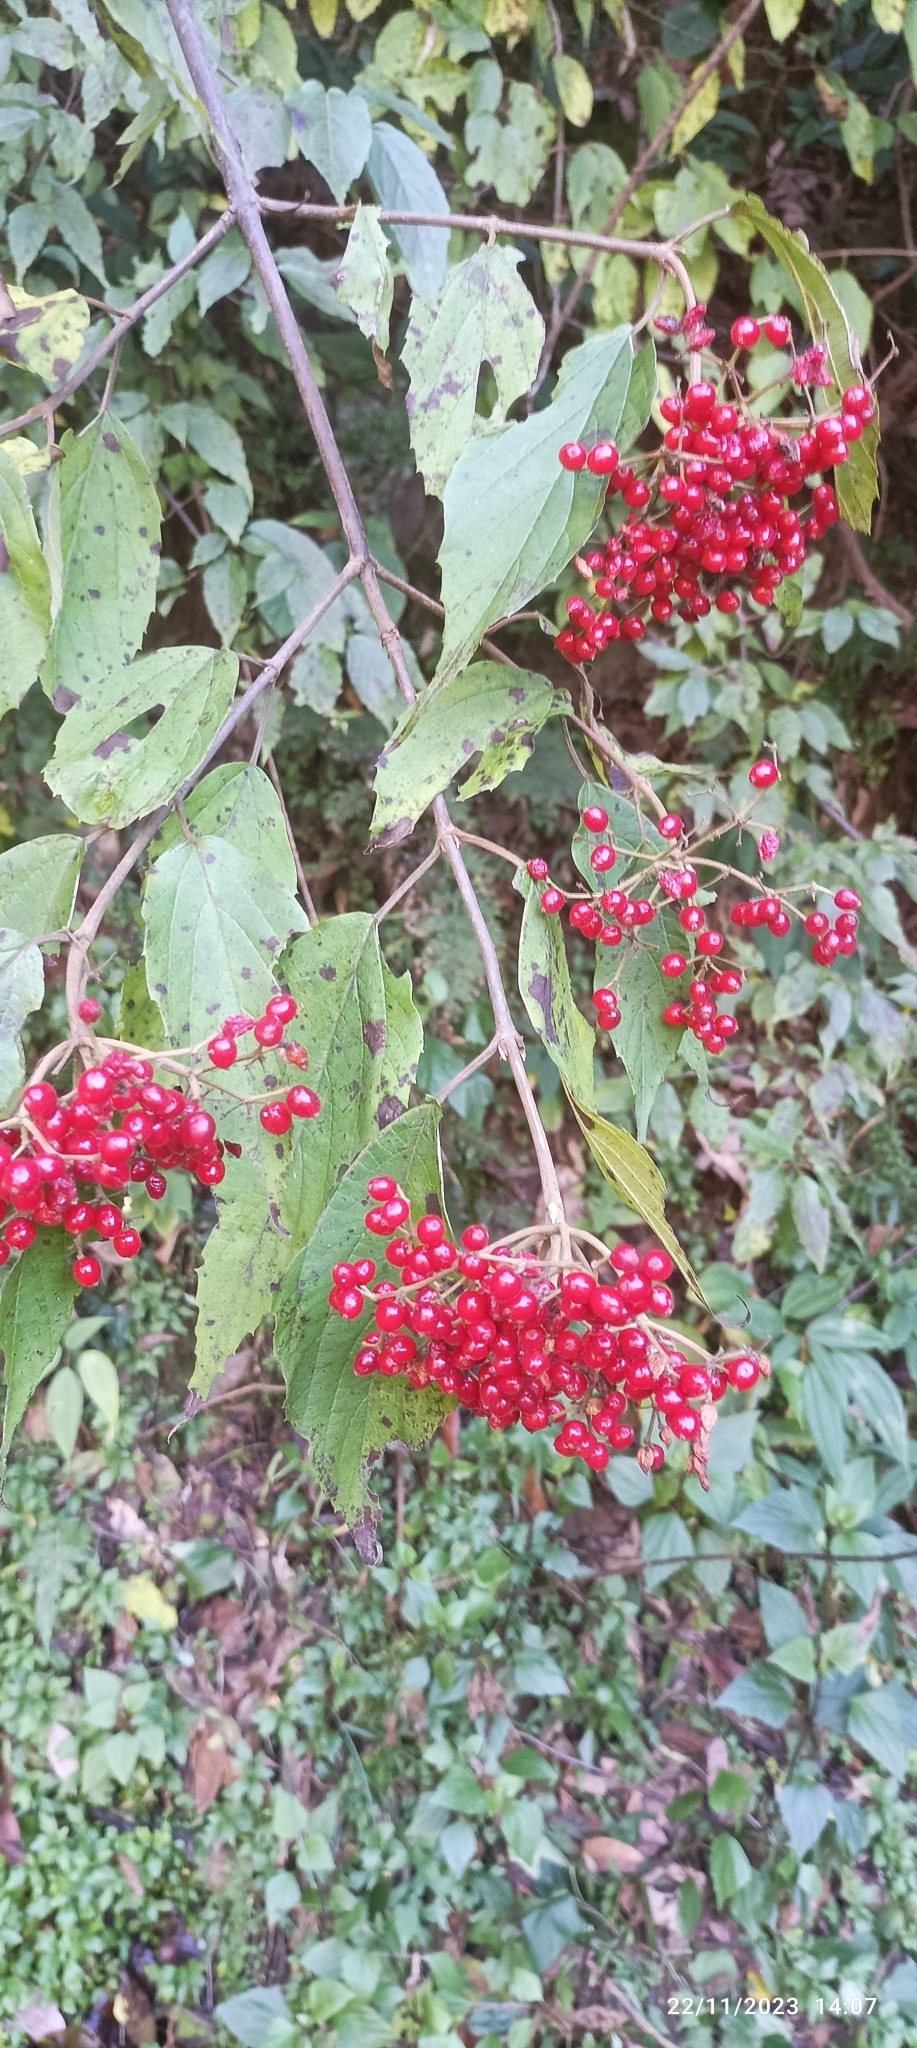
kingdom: Plantae
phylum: Tracheophyta
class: Magnoliopsida
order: Dipsacales
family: Viburnaceae
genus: Viburnum
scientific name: Viburnum mullaha
